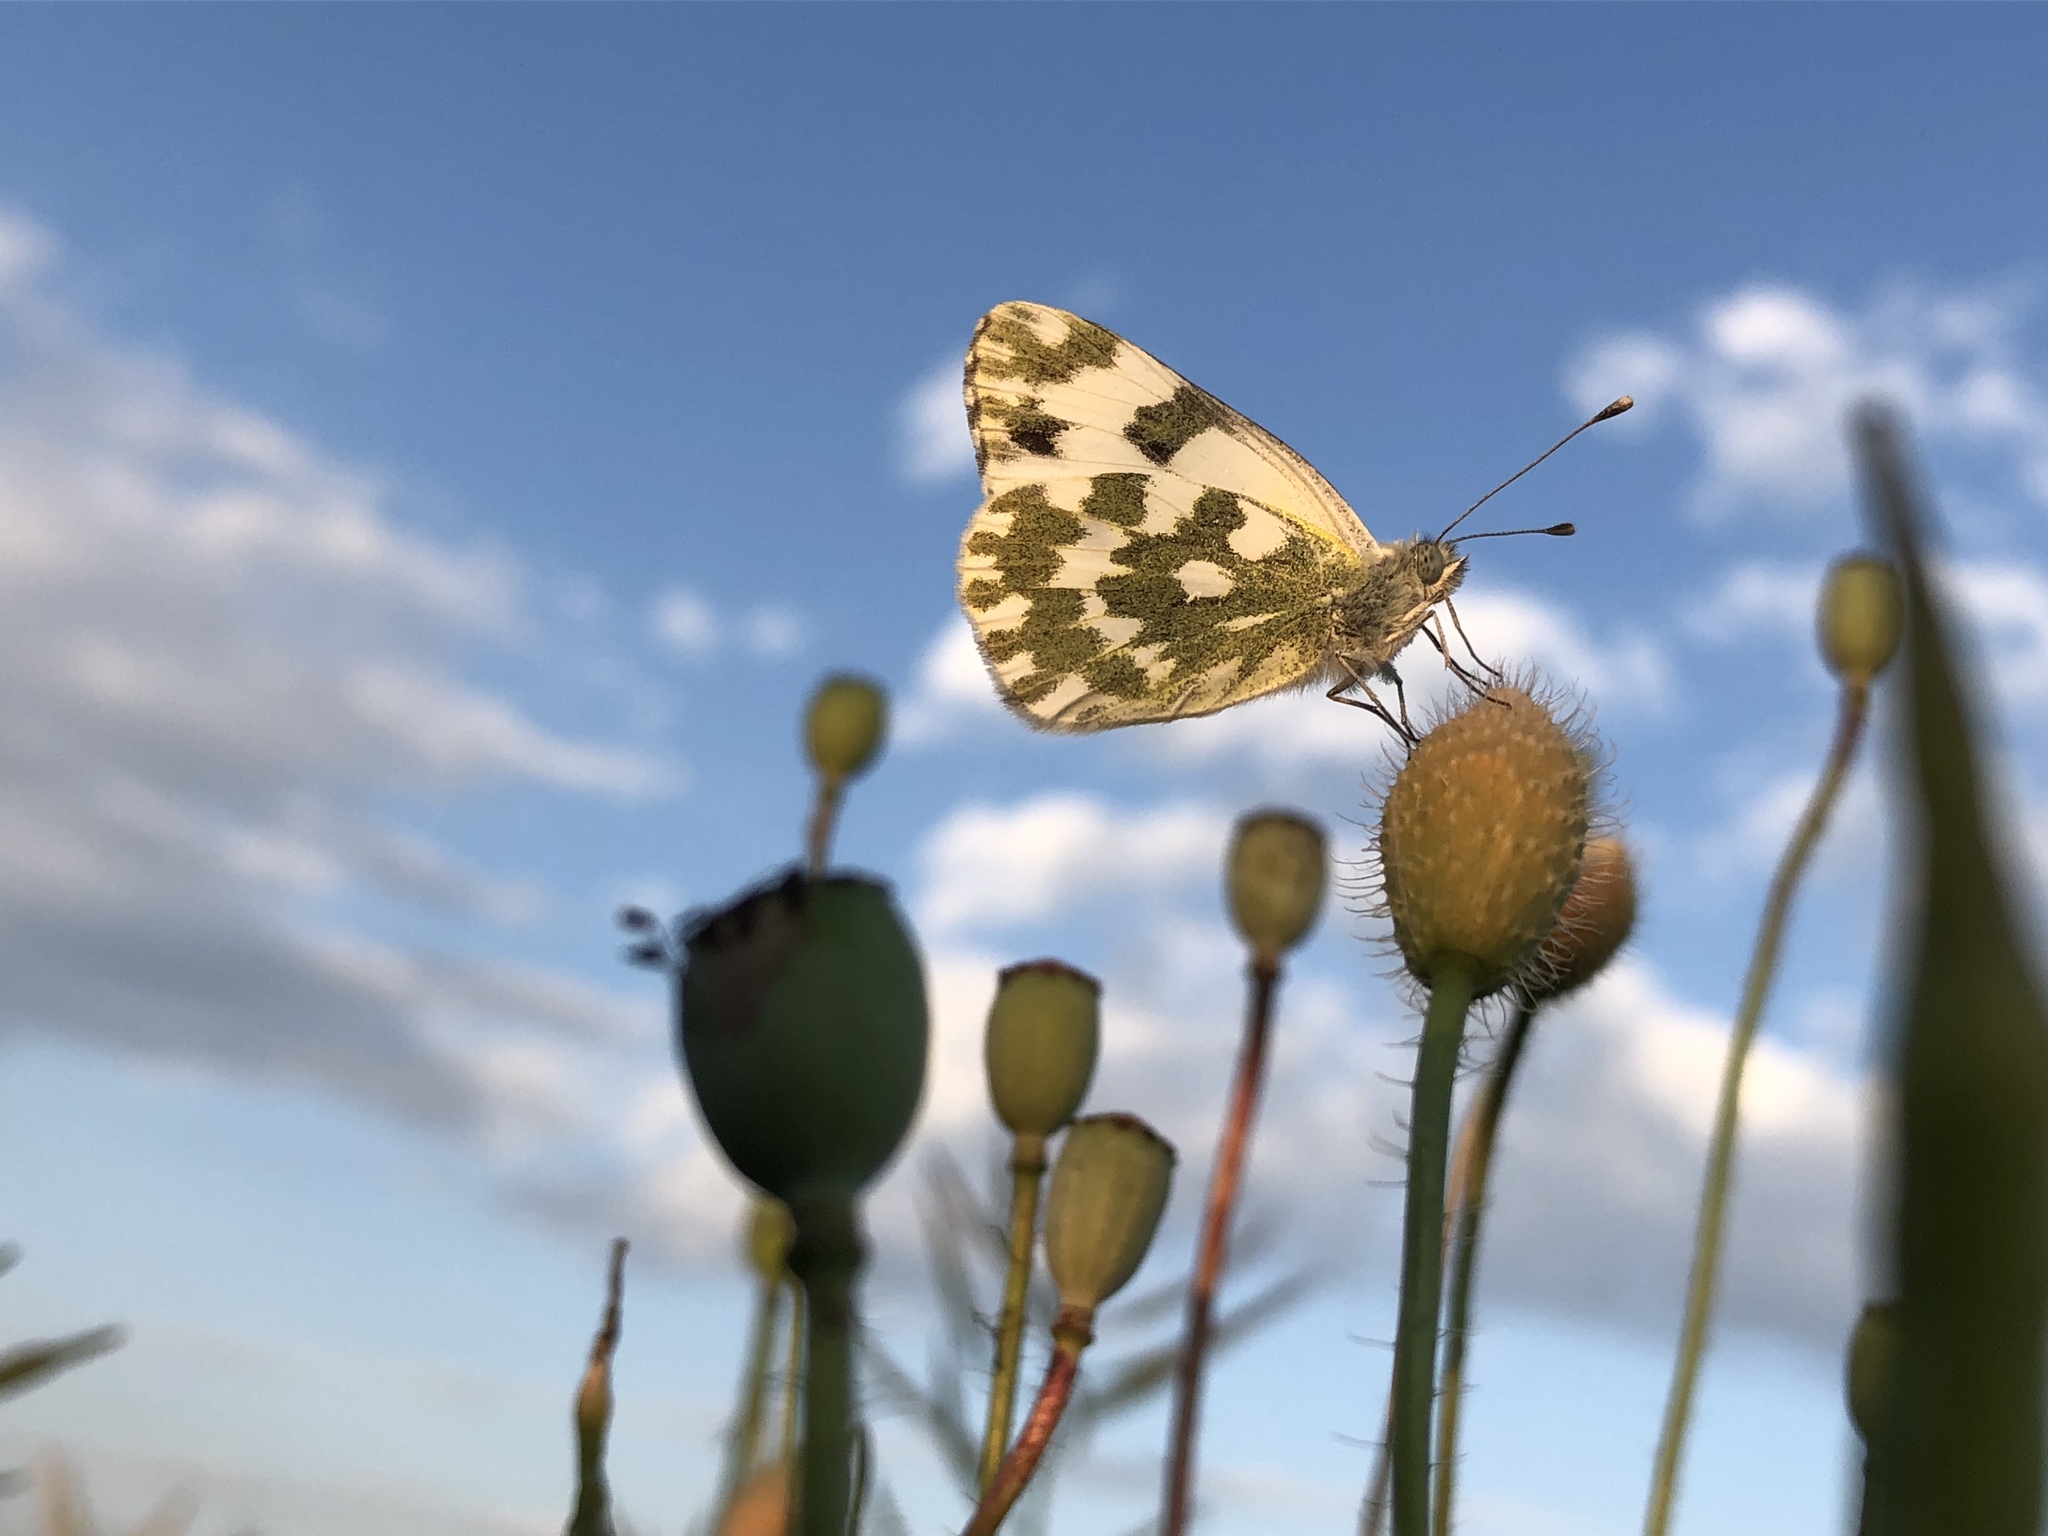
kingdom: Animalia
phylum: Arthropoda
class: Insecta
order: Lepidoptera
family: Pieridae
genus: Pontia
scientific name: Pontia edusa
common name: Eastern bath white
